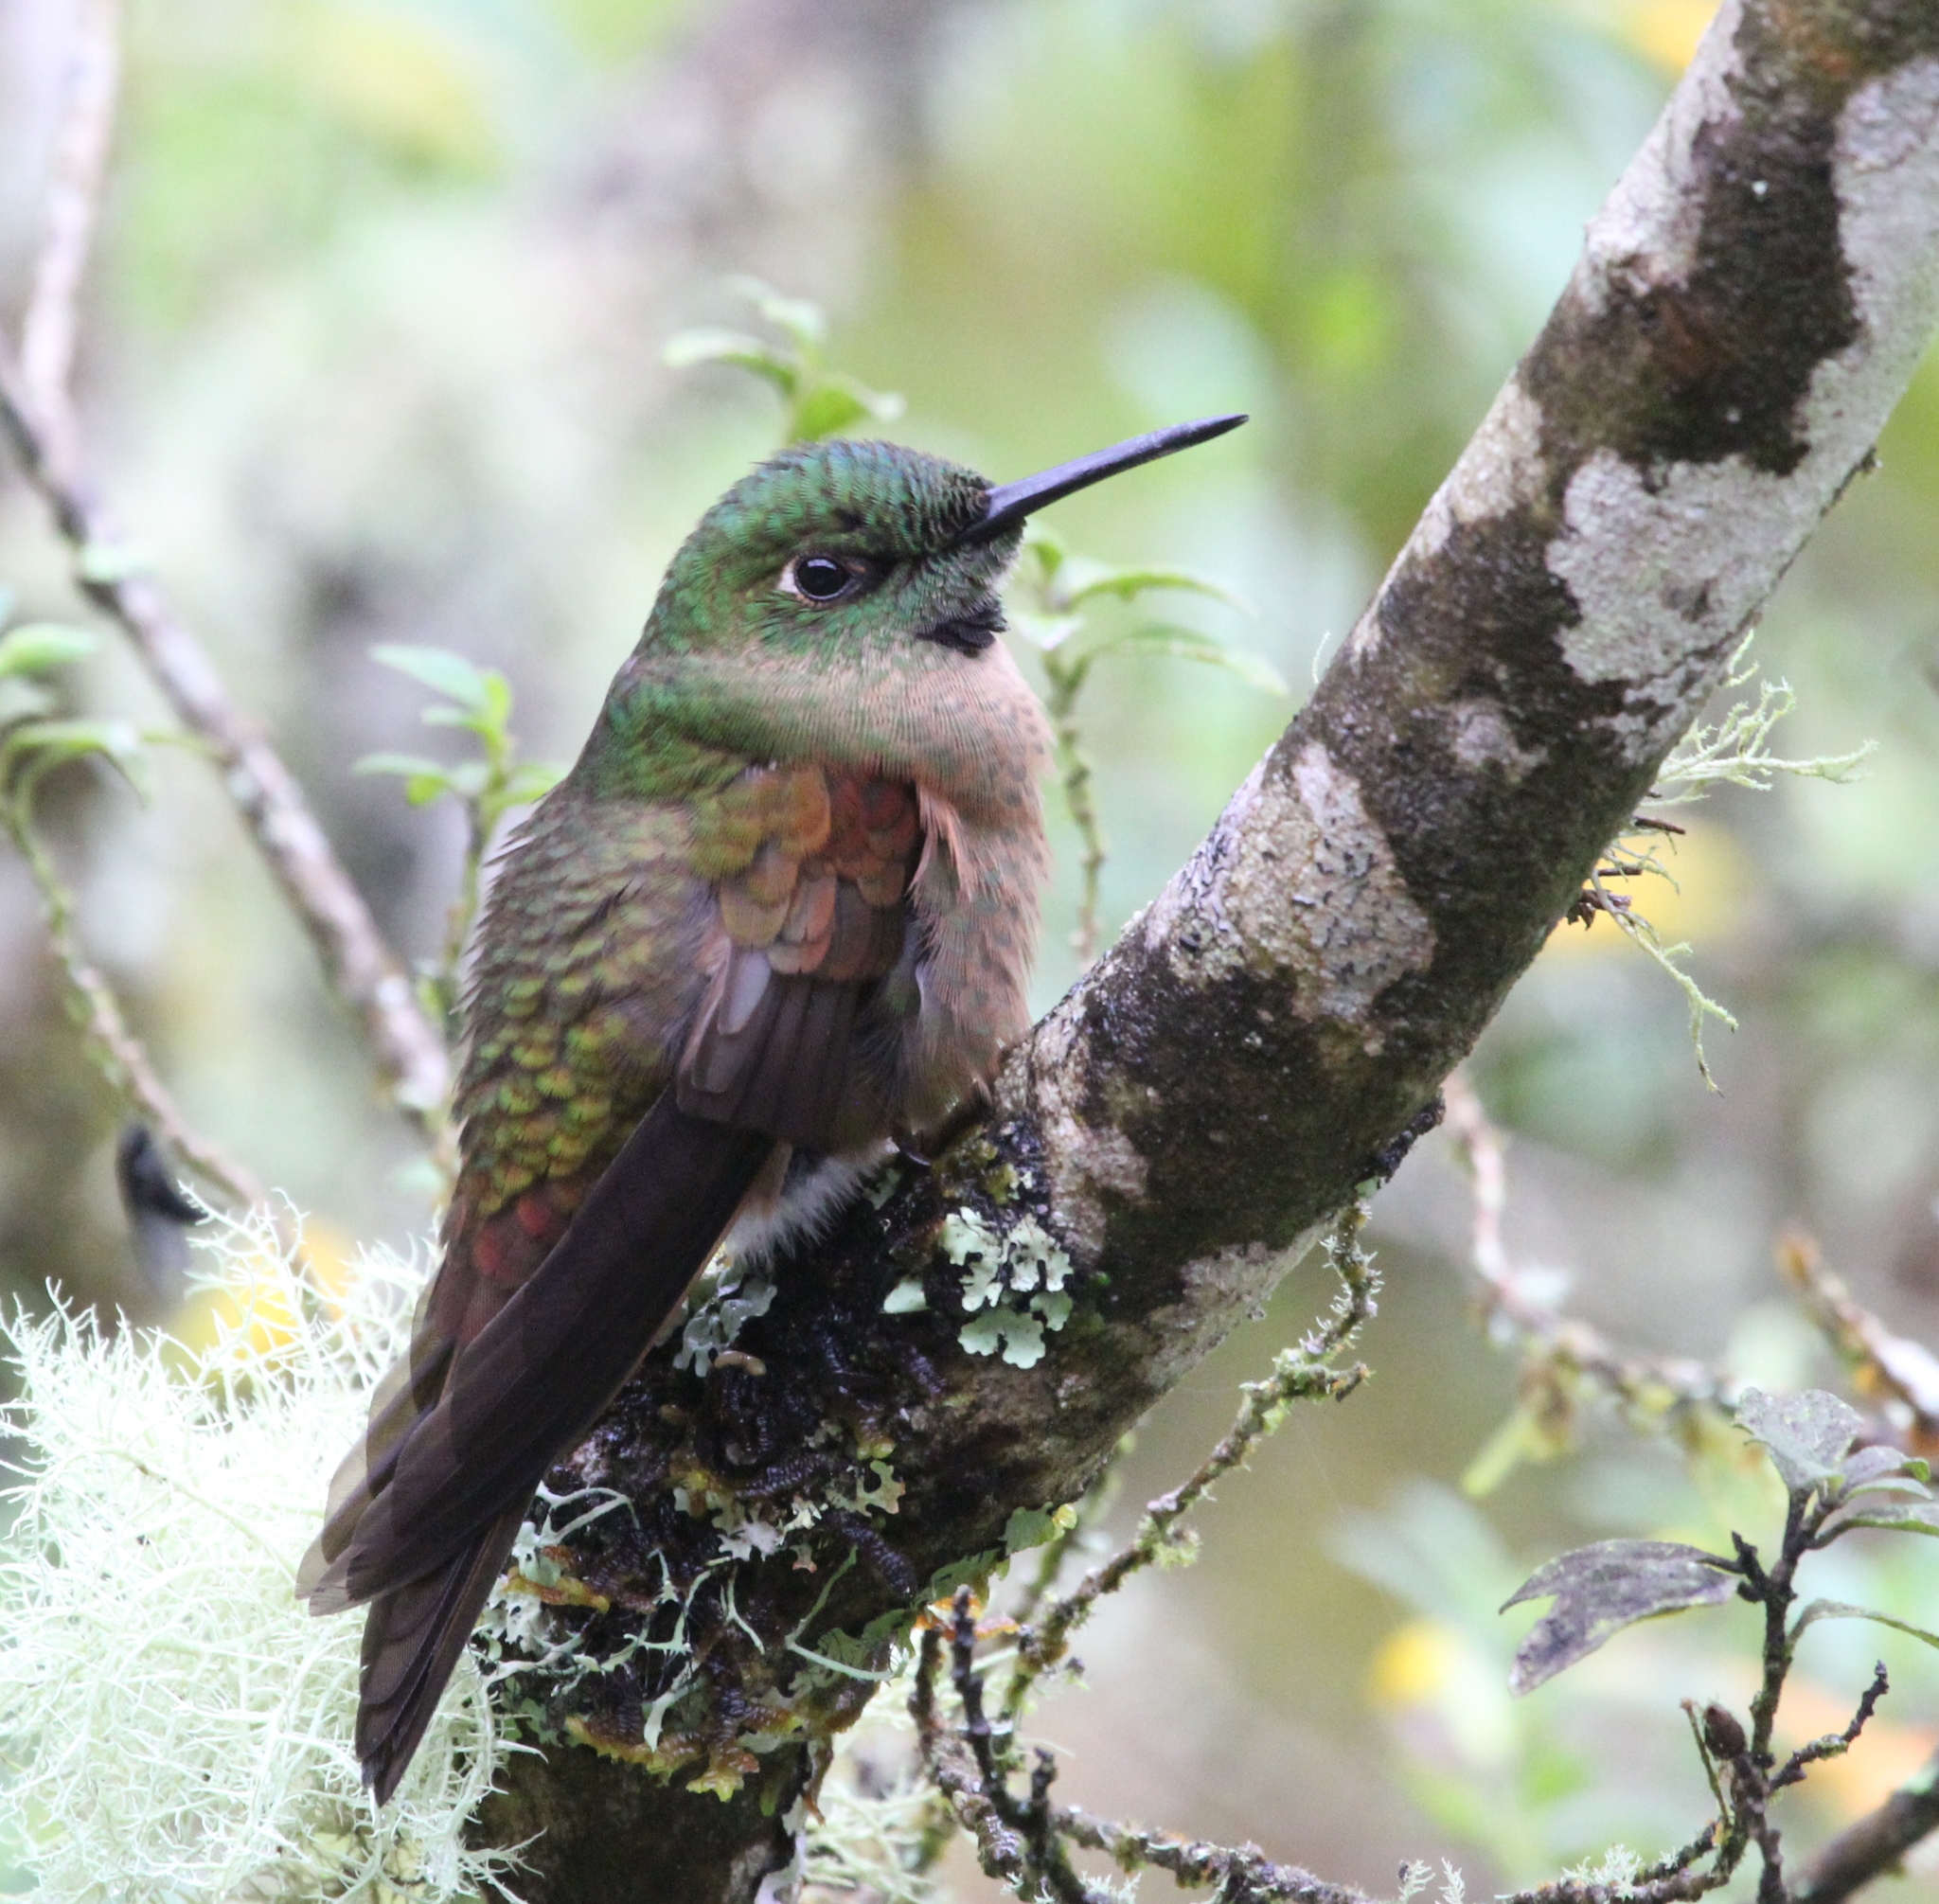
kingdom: Animalia
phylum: Chordata
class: Aves
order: Apodiformes
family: Trochilidae
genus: Heliodoxa
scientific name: Heliodoxa rubinoides
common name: Fawn-breasted brilliant
